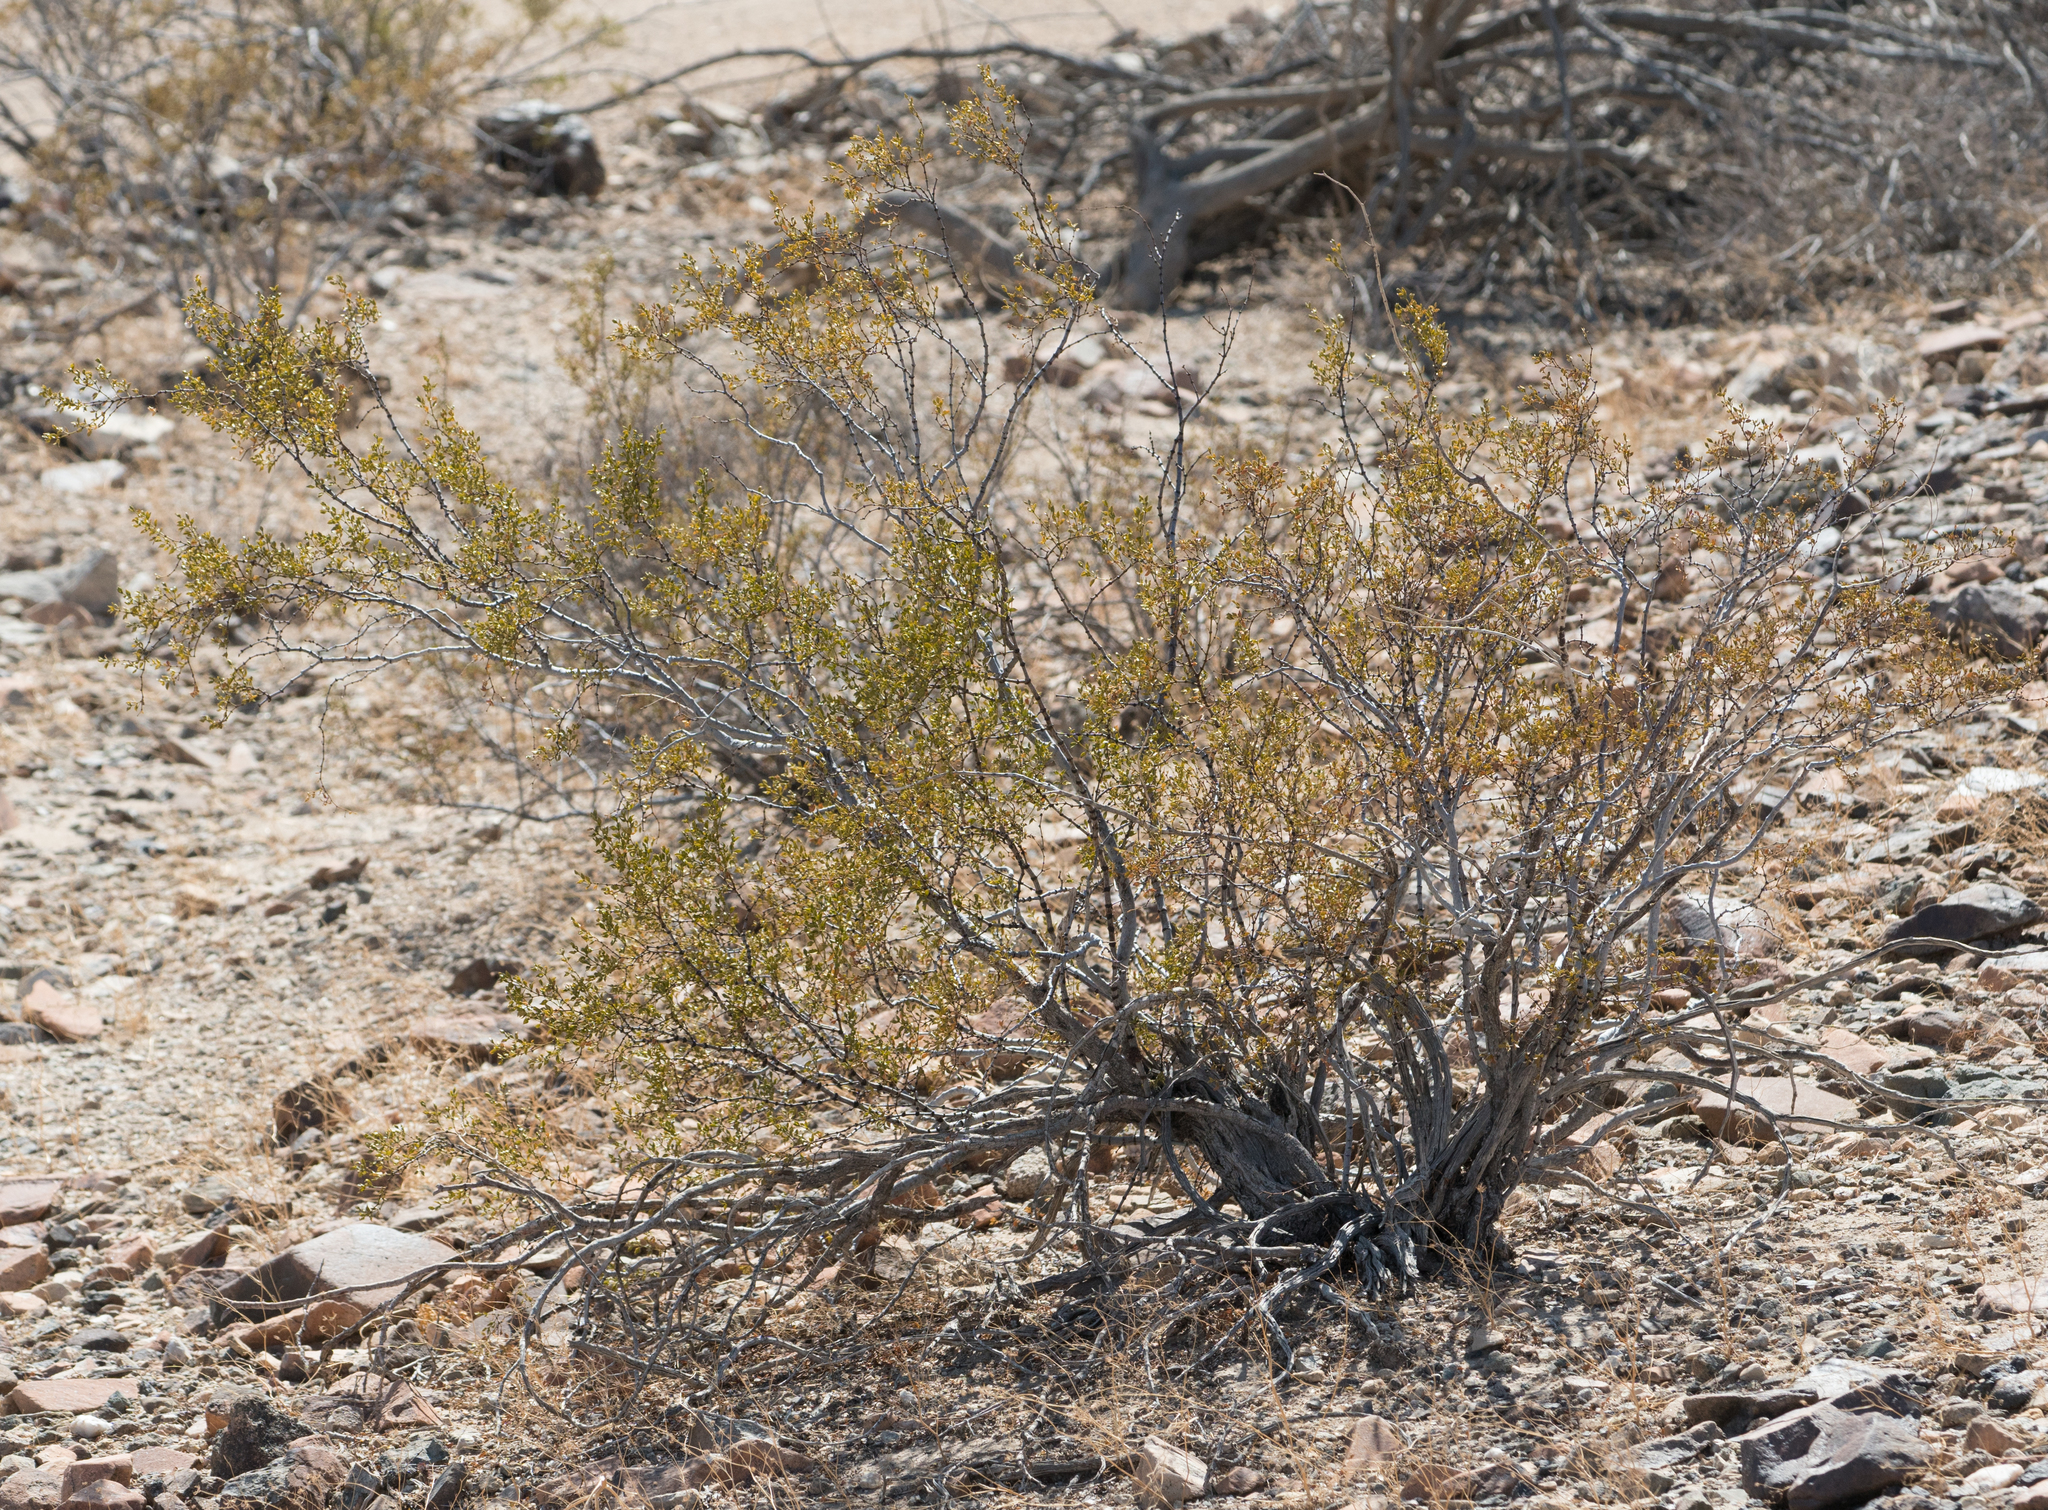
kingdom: Plantae
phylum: Tracheophyta
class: Magnoliopsida
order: Zygophyllales
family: Zygophyllaceae
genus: Larrea
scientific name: Larrea tridentata
